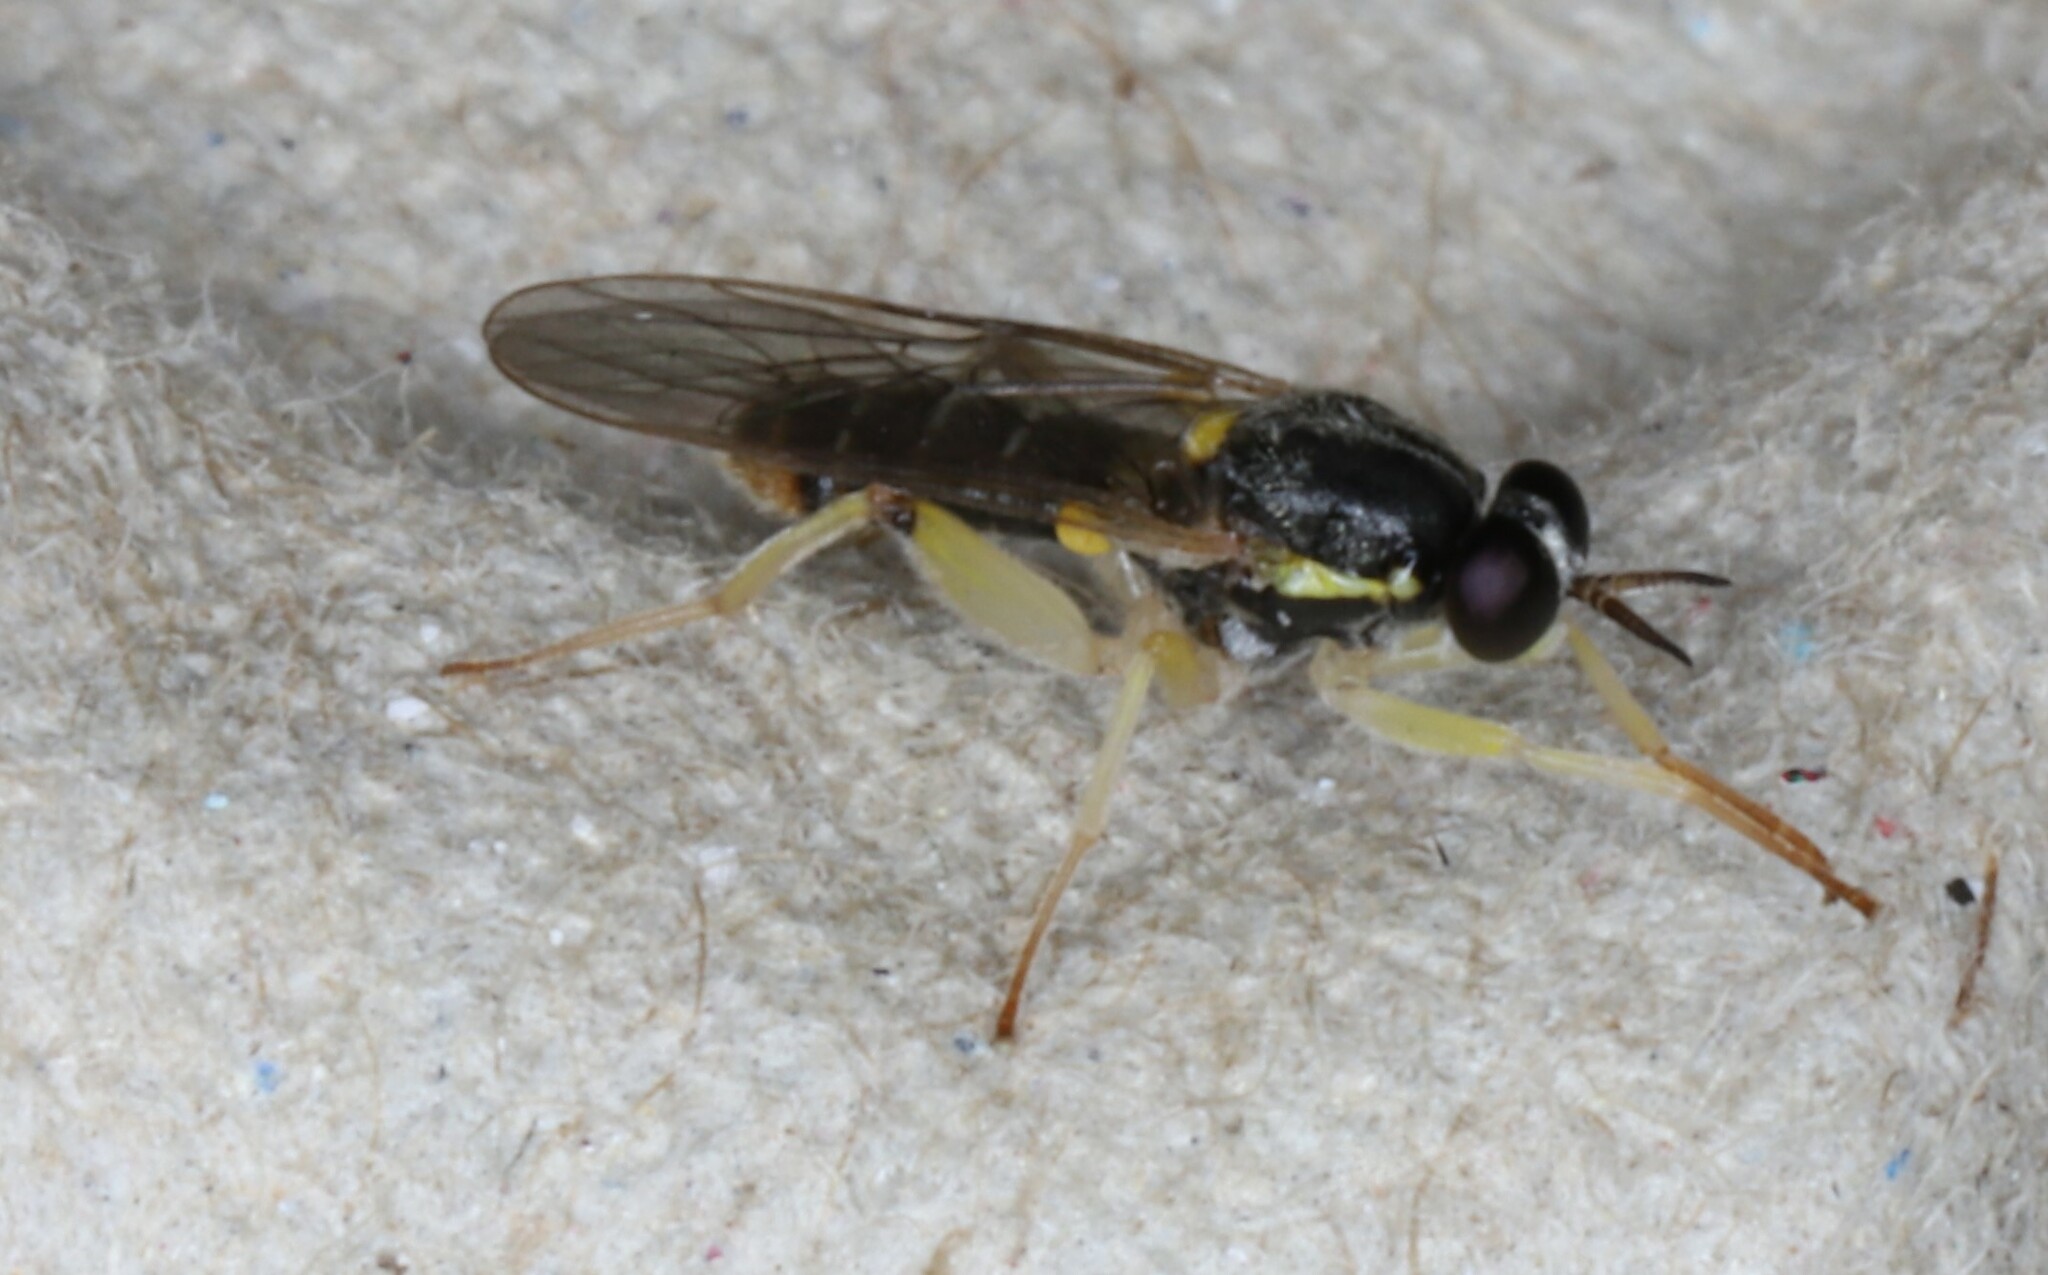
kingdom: Animalia
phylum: Arthropoda
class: Insecta
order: Diptera
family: Xylomyidae
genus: Solva
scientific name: Solva pallipes
